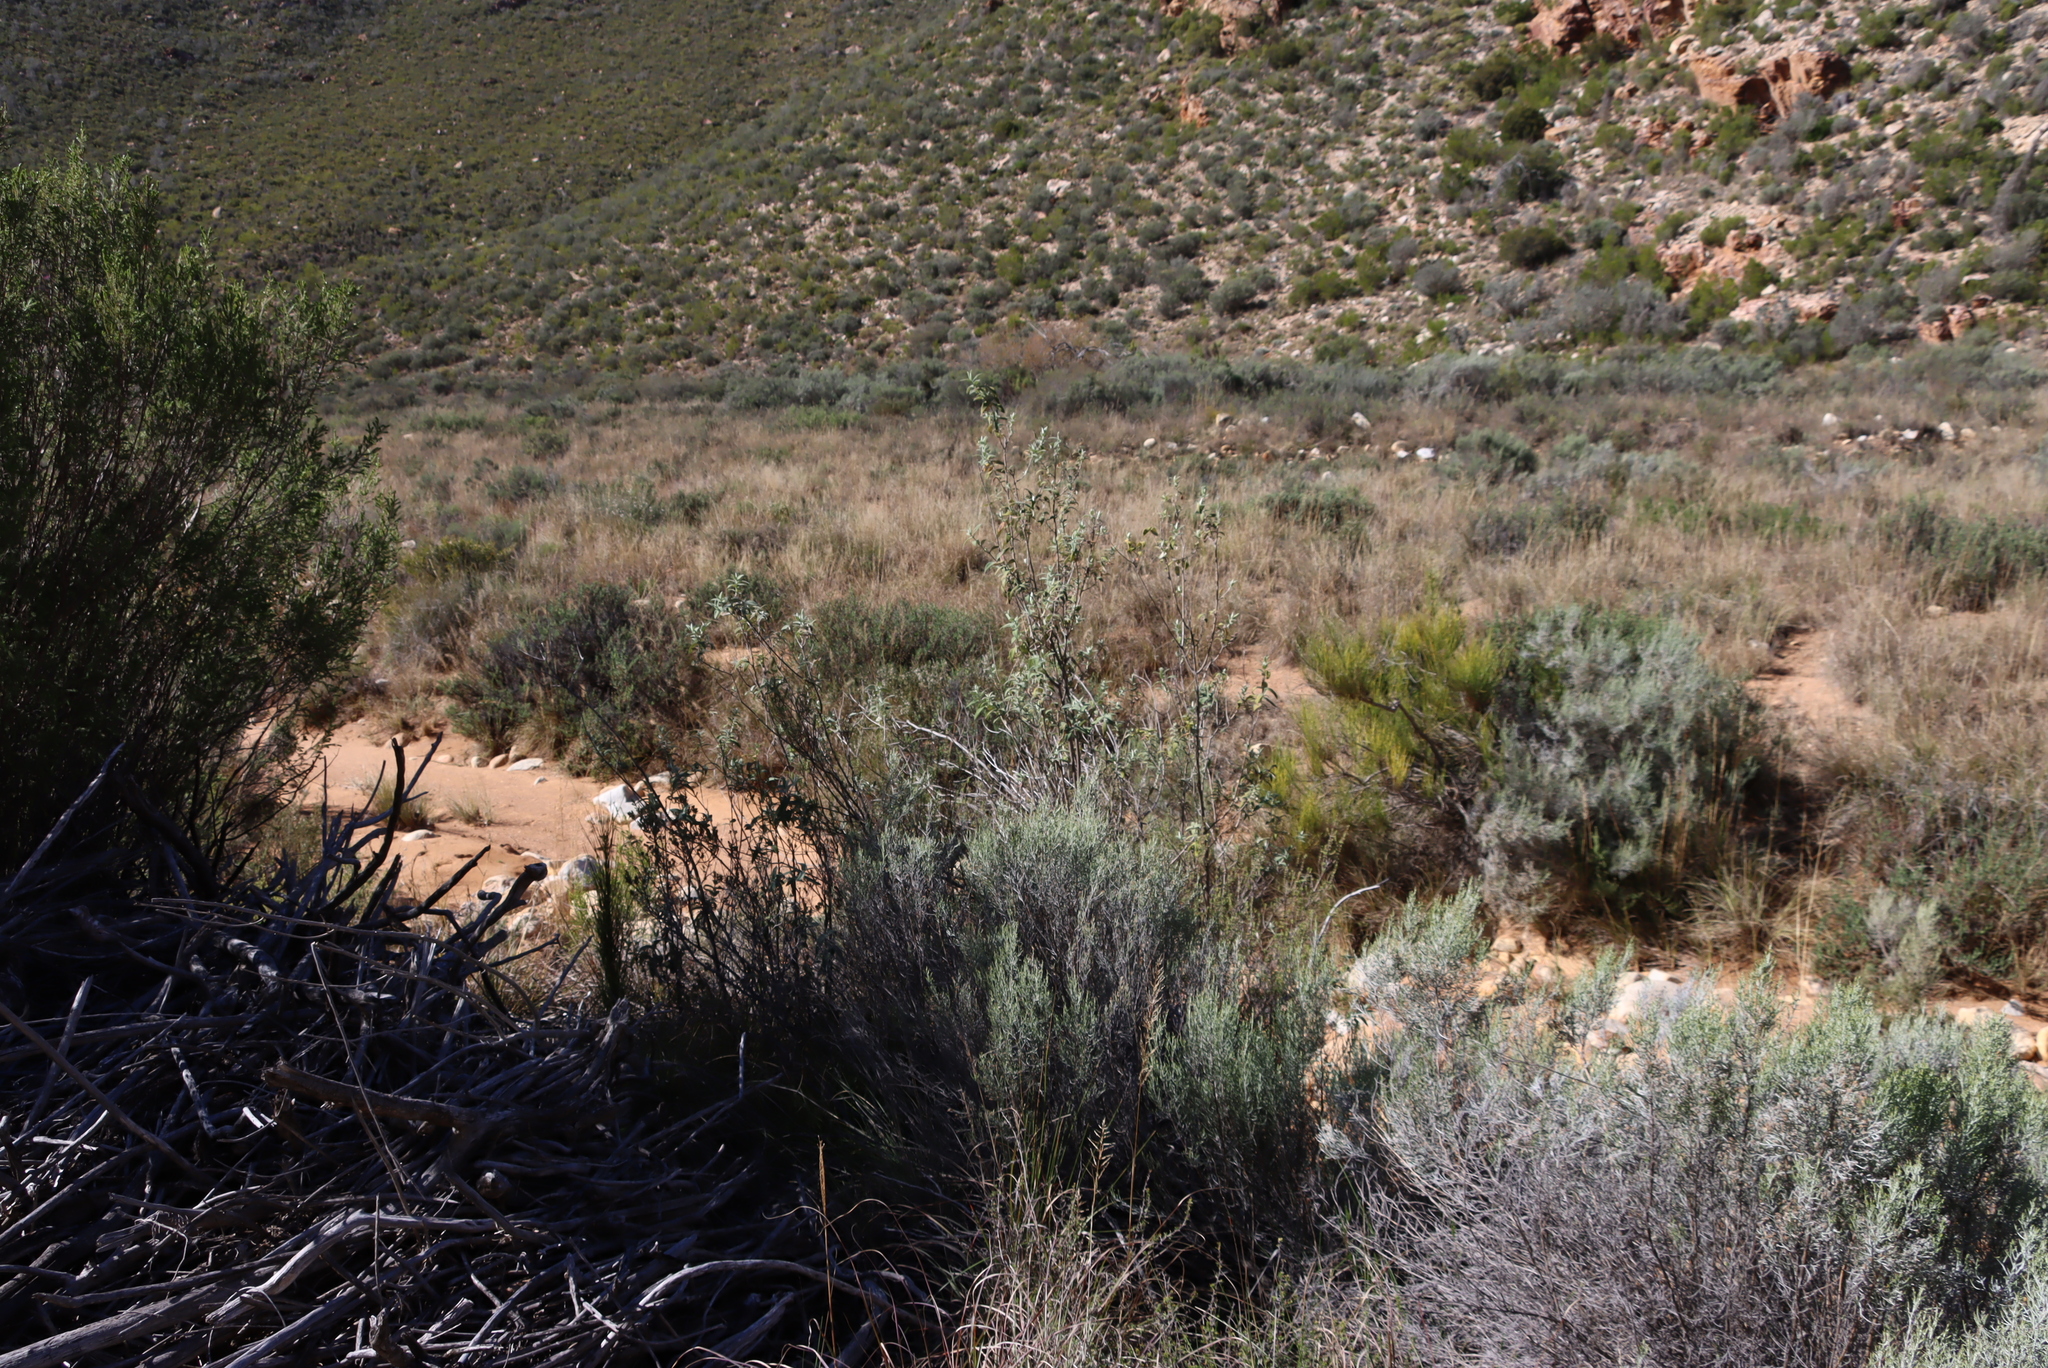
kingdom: Plantae
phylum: Tracheophyta
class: Magnoliopsida
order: Lamiales
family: Scrophulariaceae
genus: Buddleja
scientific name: Buddleja salviifolia
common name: Sagewood
